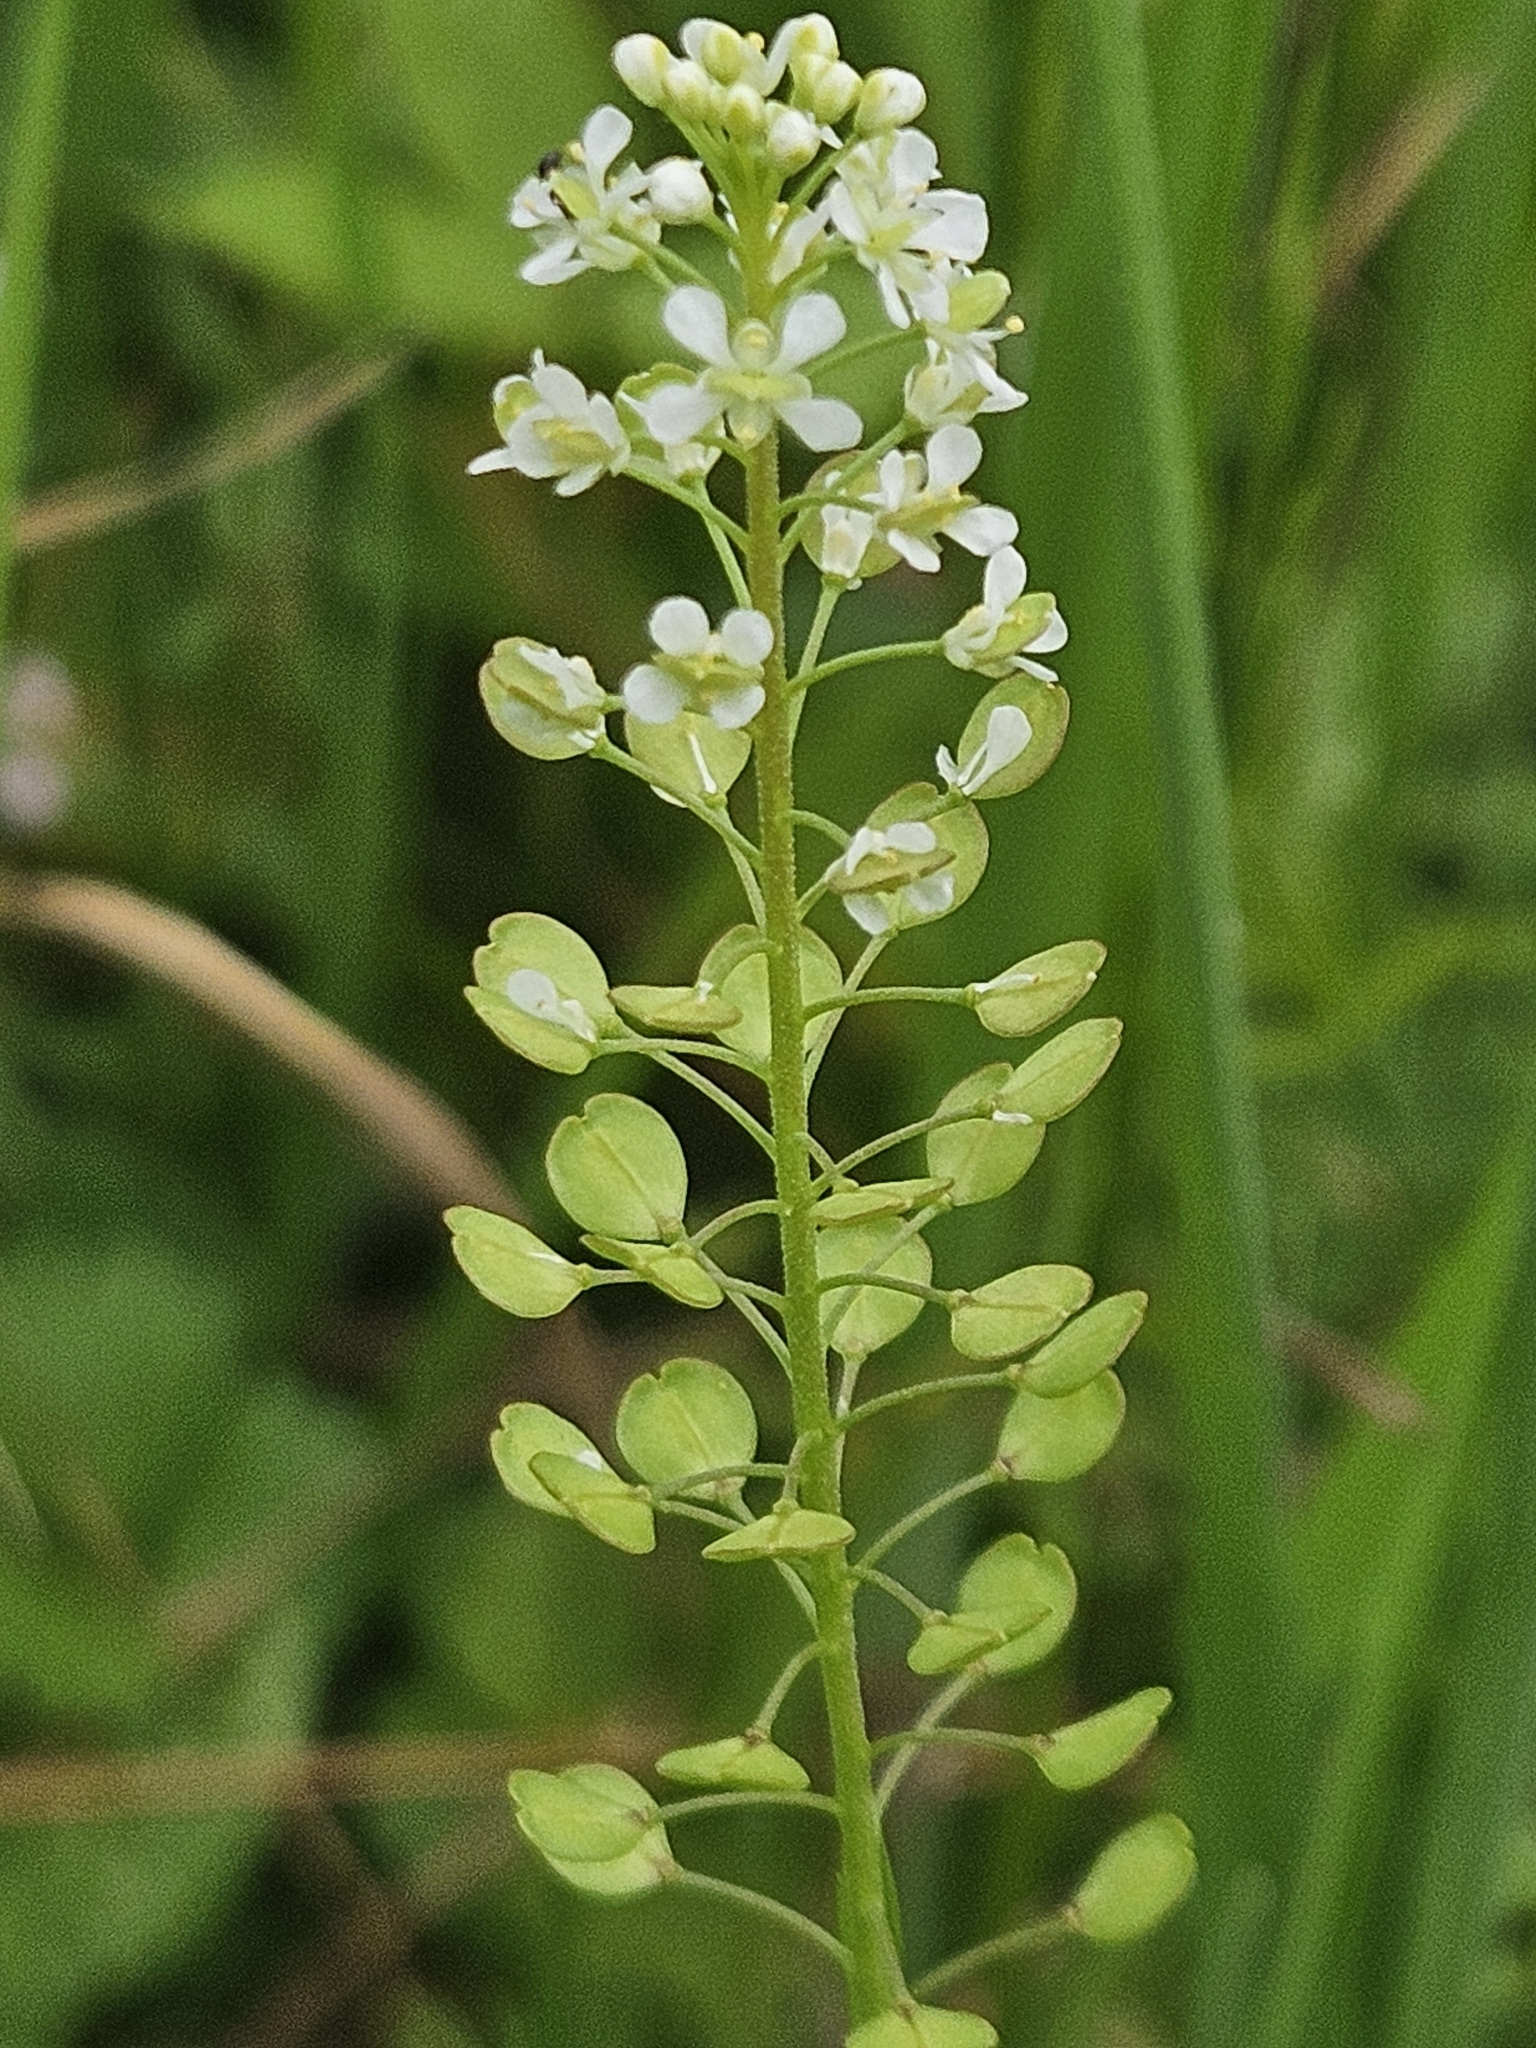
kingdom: Plantae
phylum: Tracheophyta
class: Magnoliopsida
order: Brassicales
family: Brassicaceae
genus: Lepidium
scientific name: Lepidium densiflorum
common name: Miner's pepperwort
